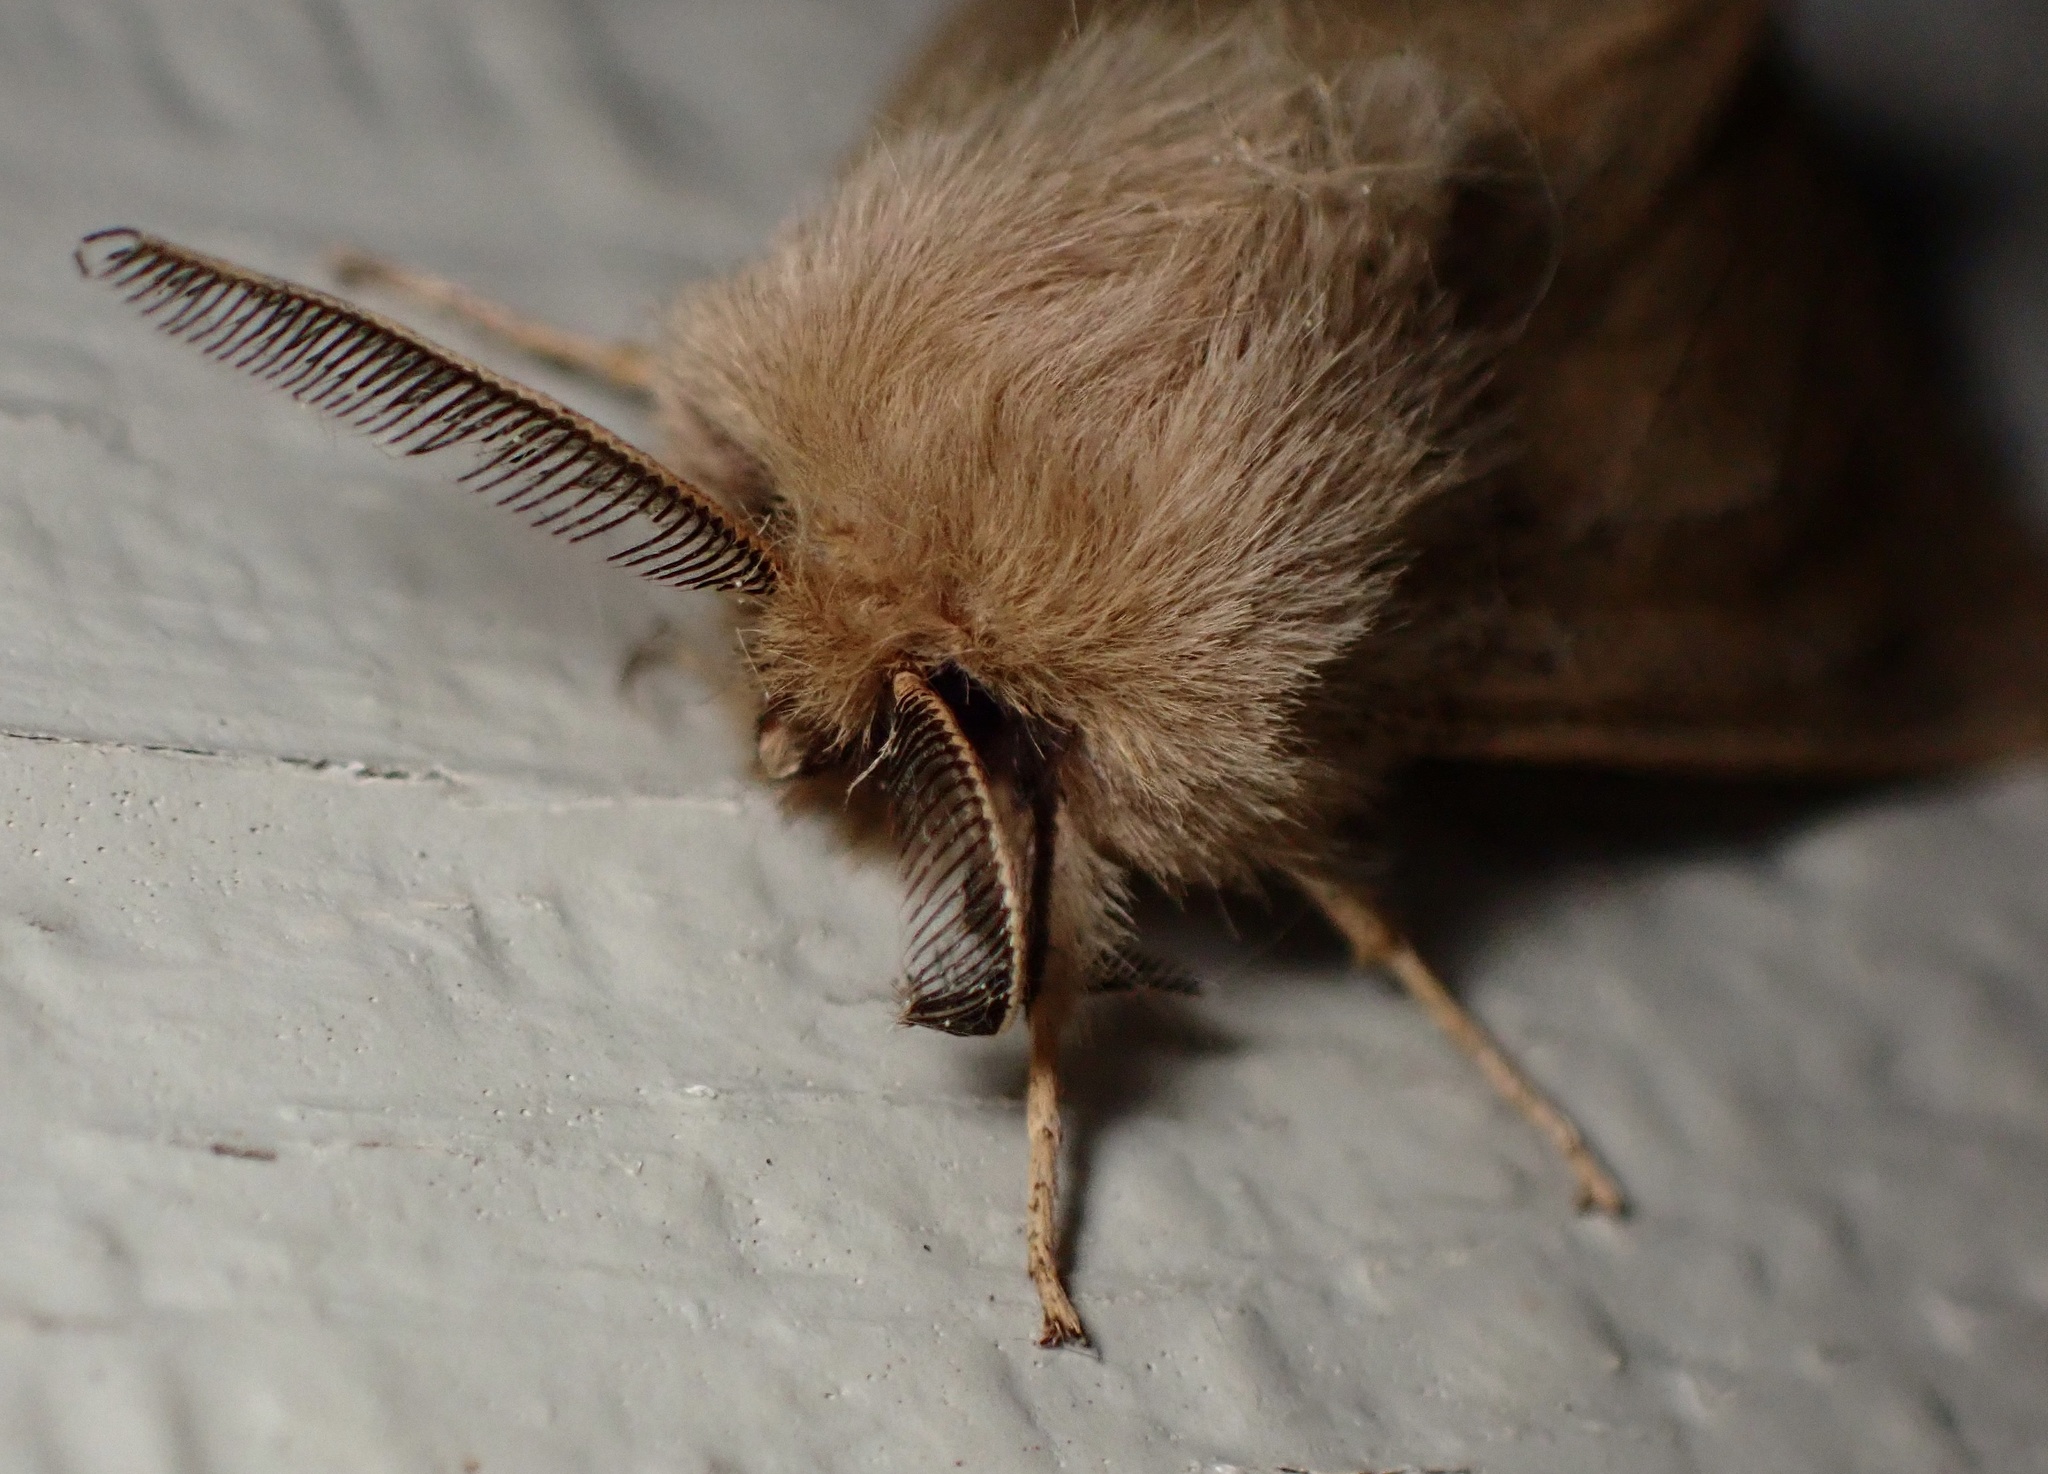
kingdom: Animalia
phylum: Arthropoda
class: Insecta
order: Lepidoptera
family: Erebidae
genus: Spilosoma
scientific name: Spilosoma vagans
